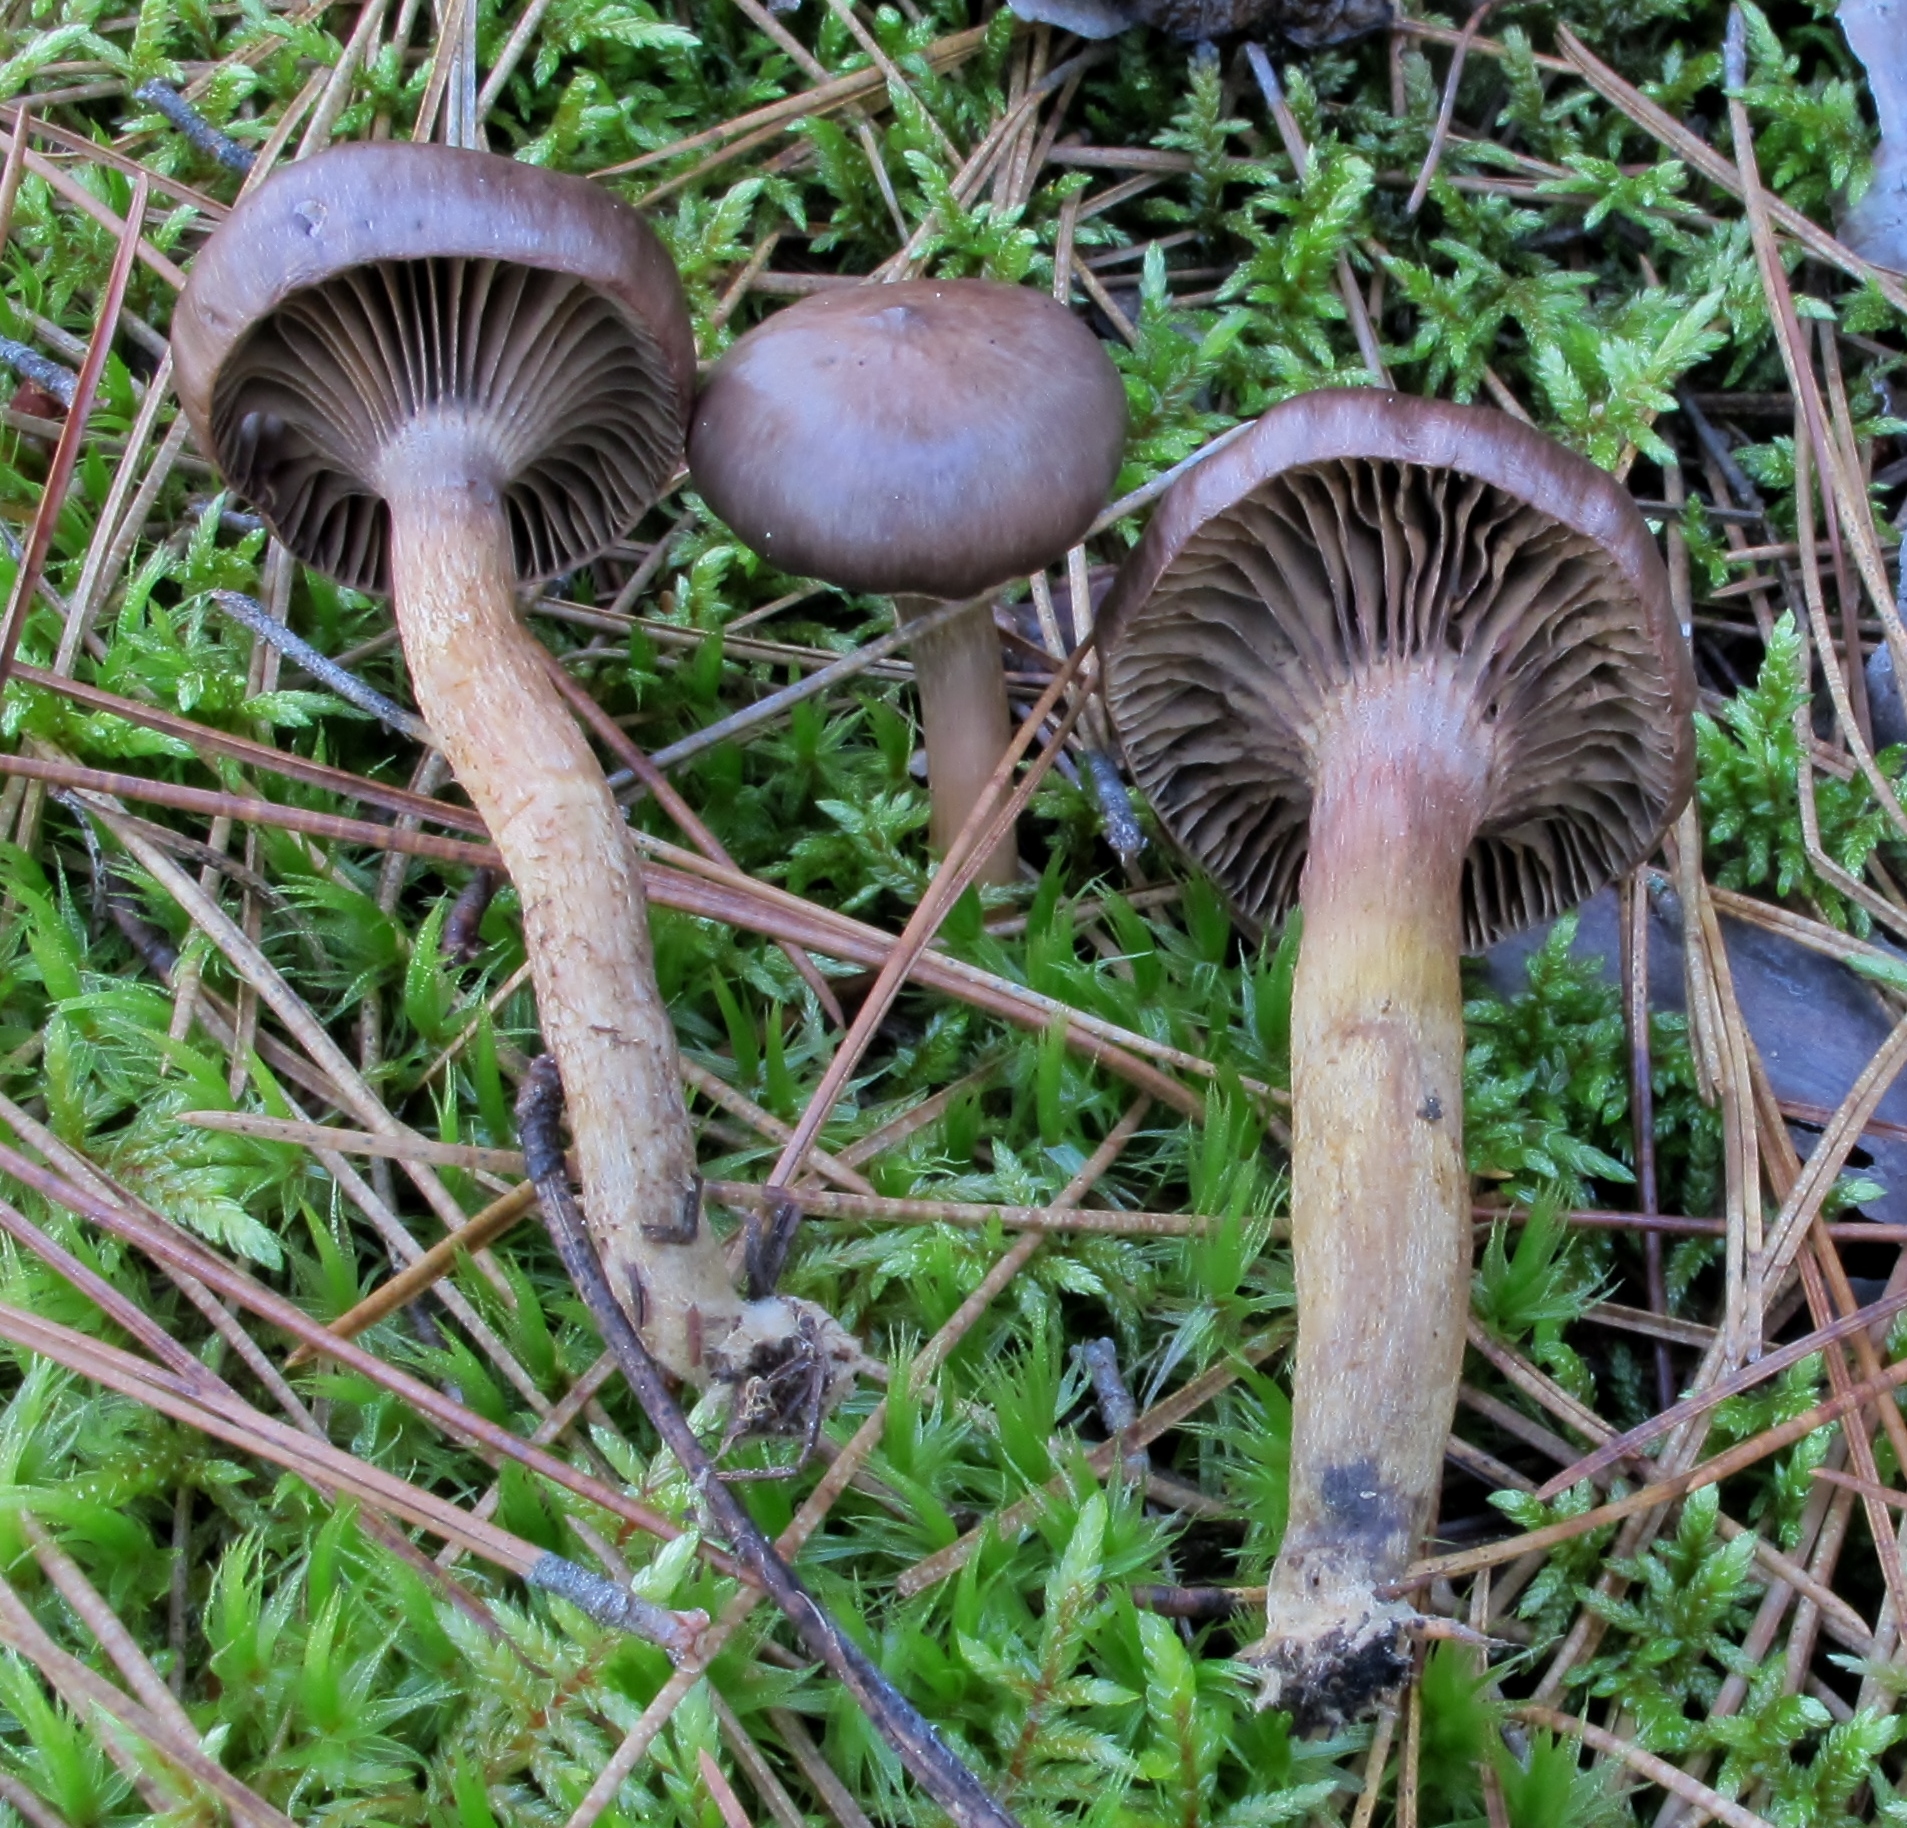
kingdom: Fungi
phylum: Basidiomycota
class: Agaricomycetes
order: Boletales
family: Gomphidiaceae
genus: Chroogomphus
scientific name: Chroogomphus vinicolor
